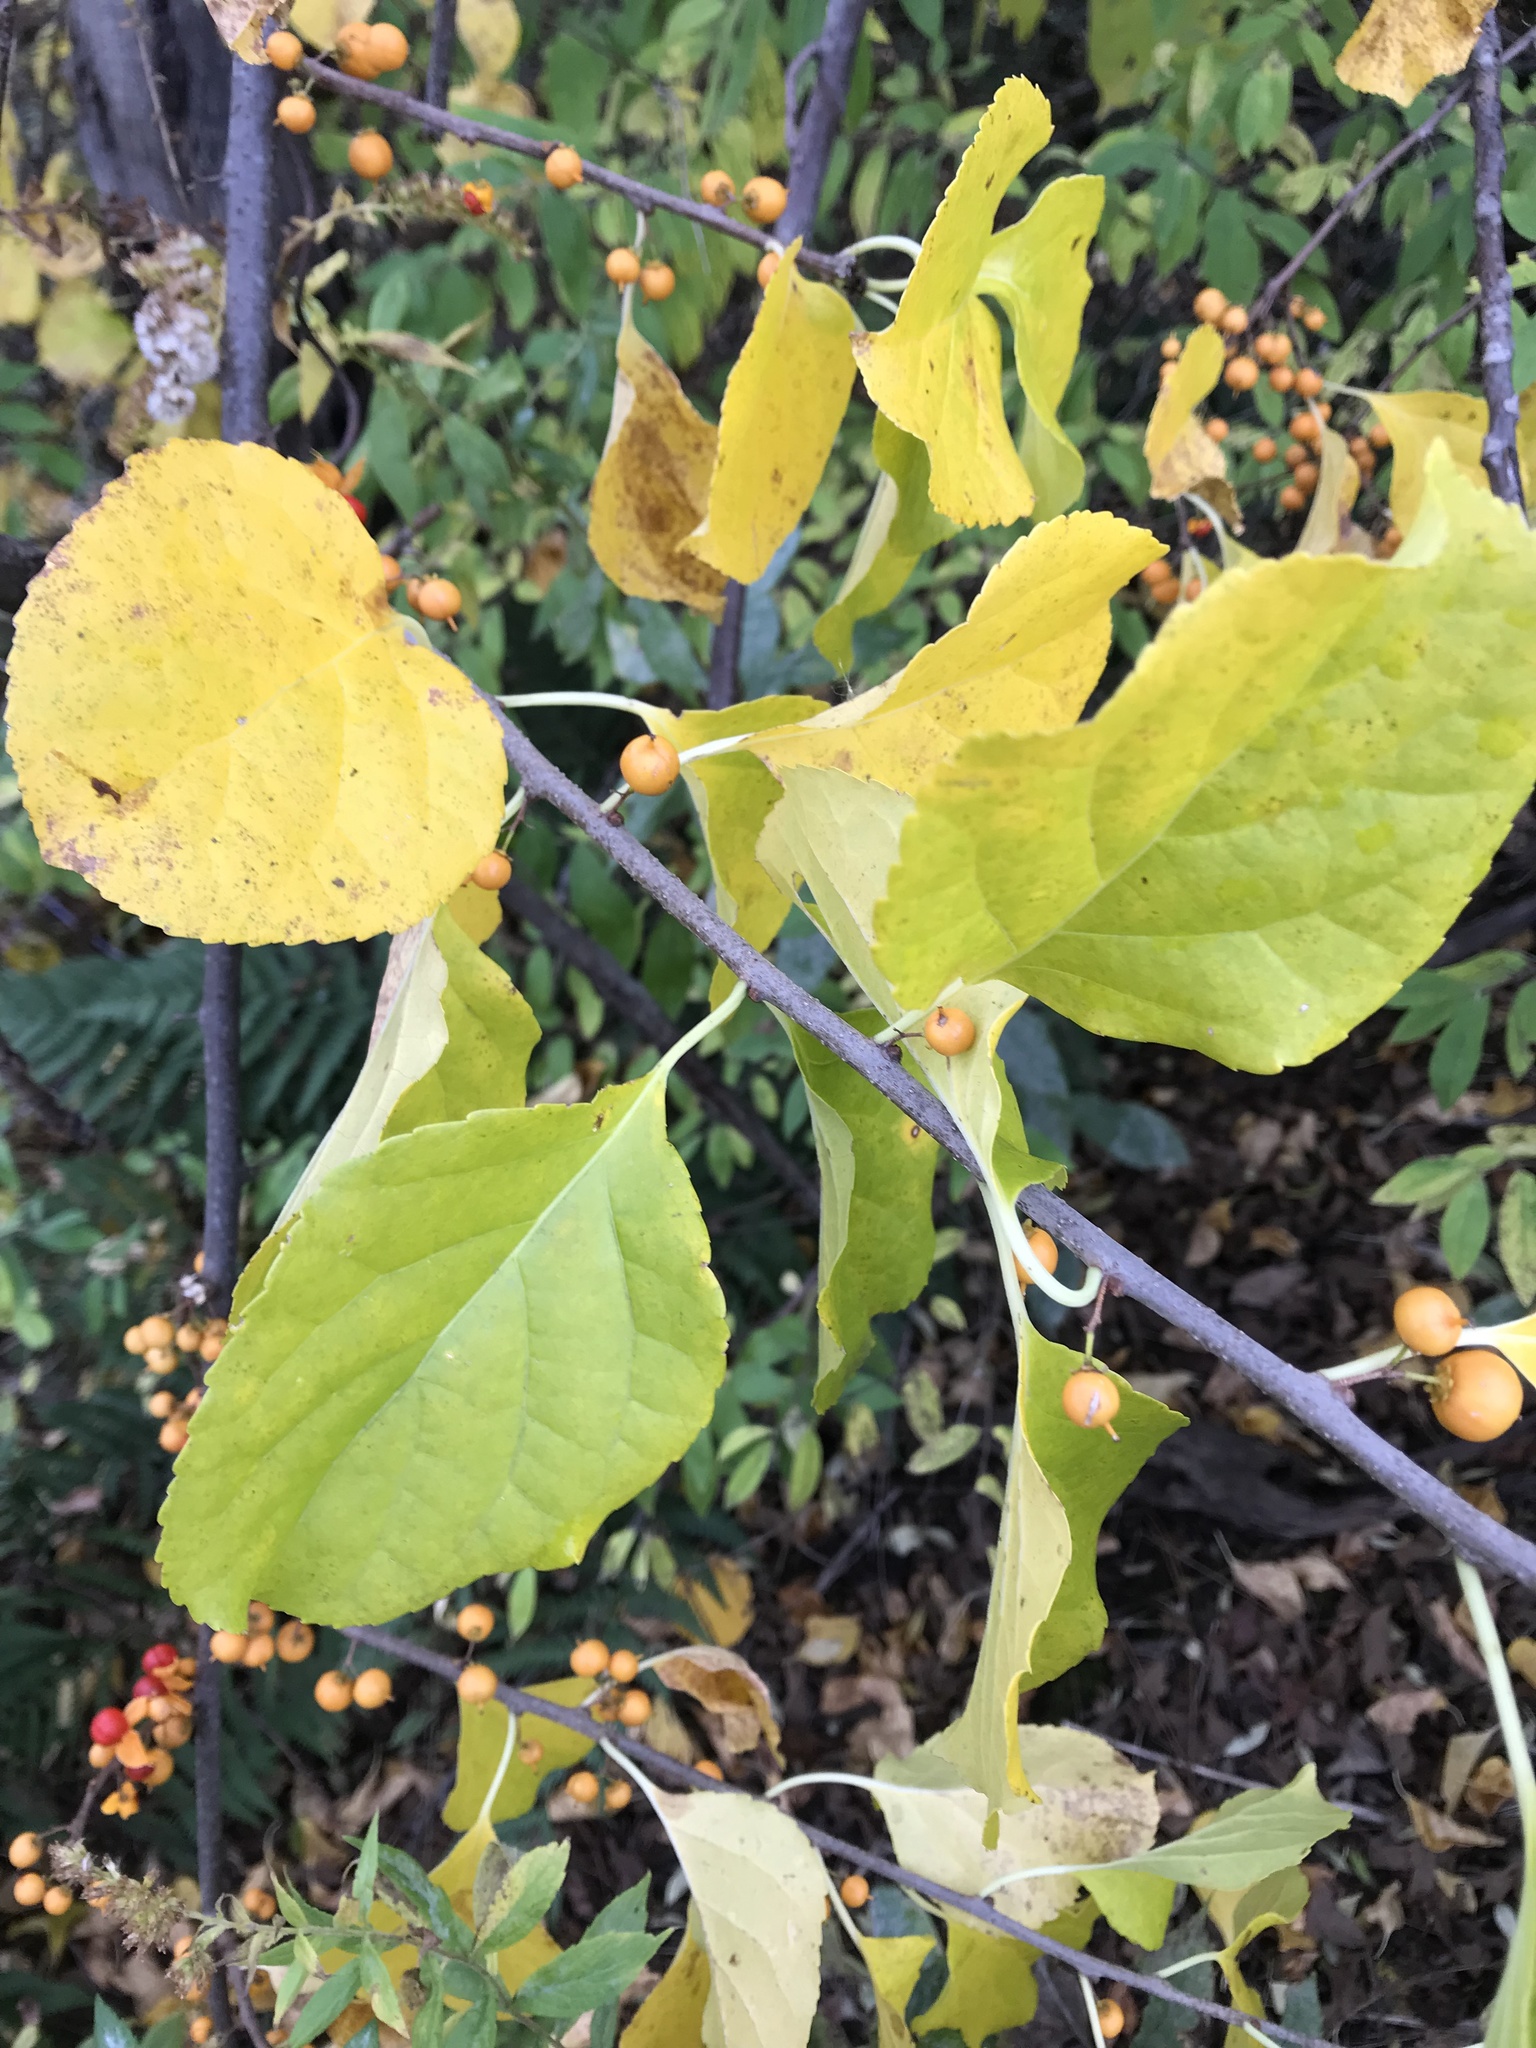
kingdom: Plantae
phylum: Tracheophyta
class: Magnoliopsida
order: Celastrales
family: Celastraceae
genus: Celastrus
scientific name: Celastrus orbiculatus
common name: Oriental bittersweet
